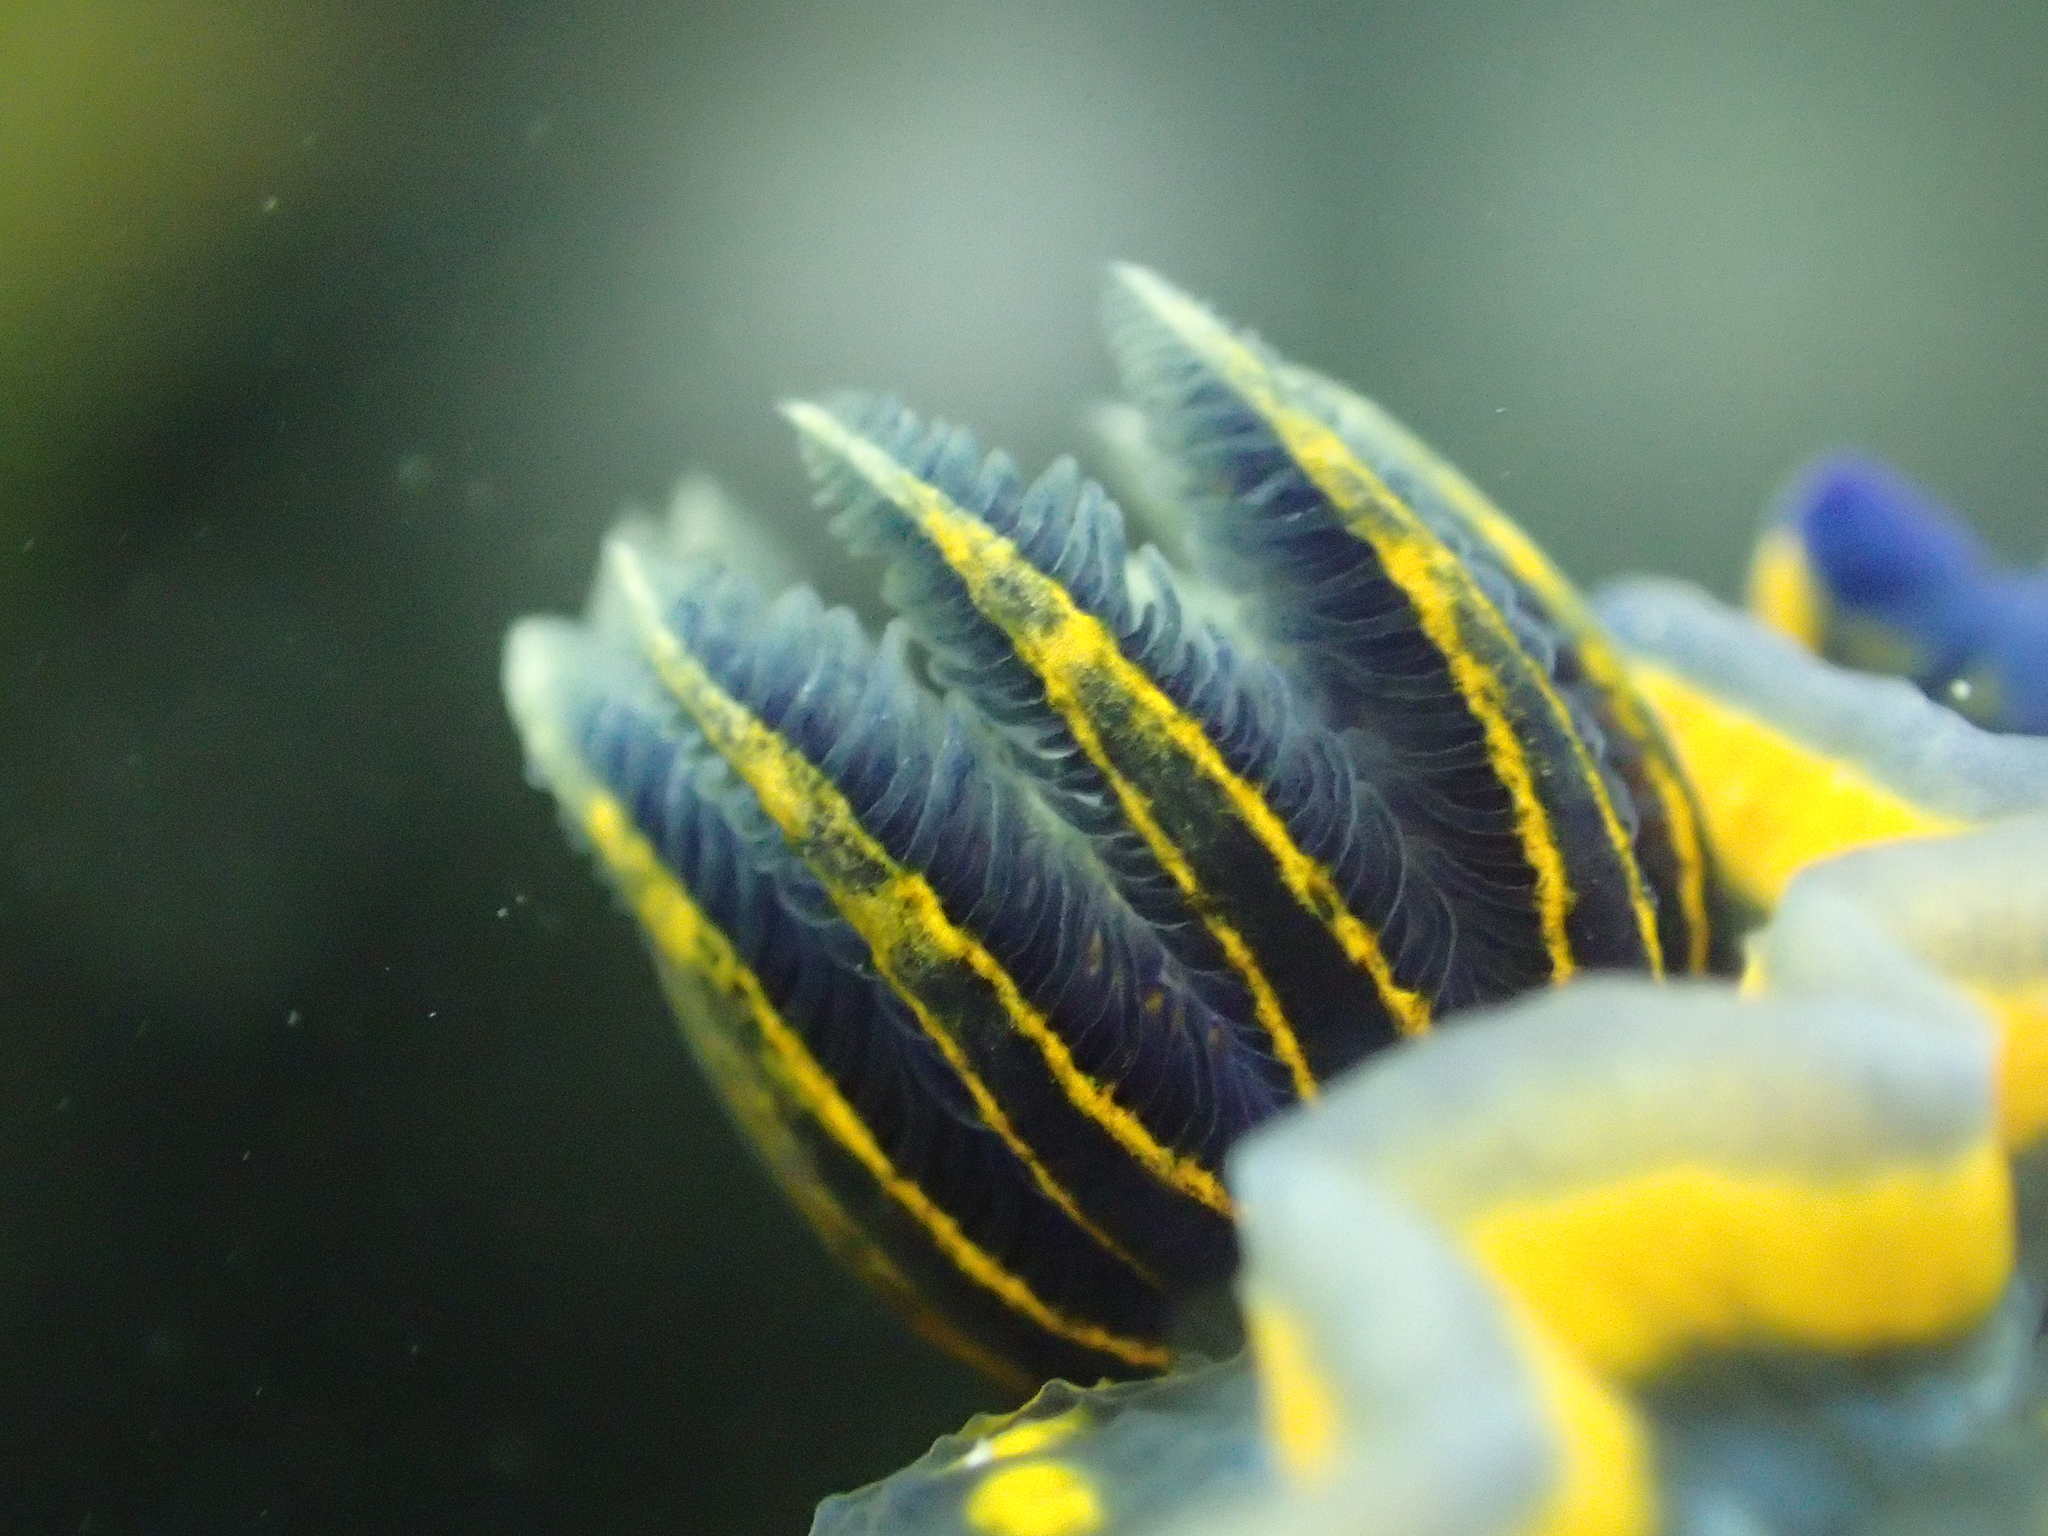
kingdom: Animalia
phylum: Mollusca
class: Gastropoda
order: Nudibranchia
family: Chromodorididae
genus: Felimare
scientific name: Felimare cantabrica
